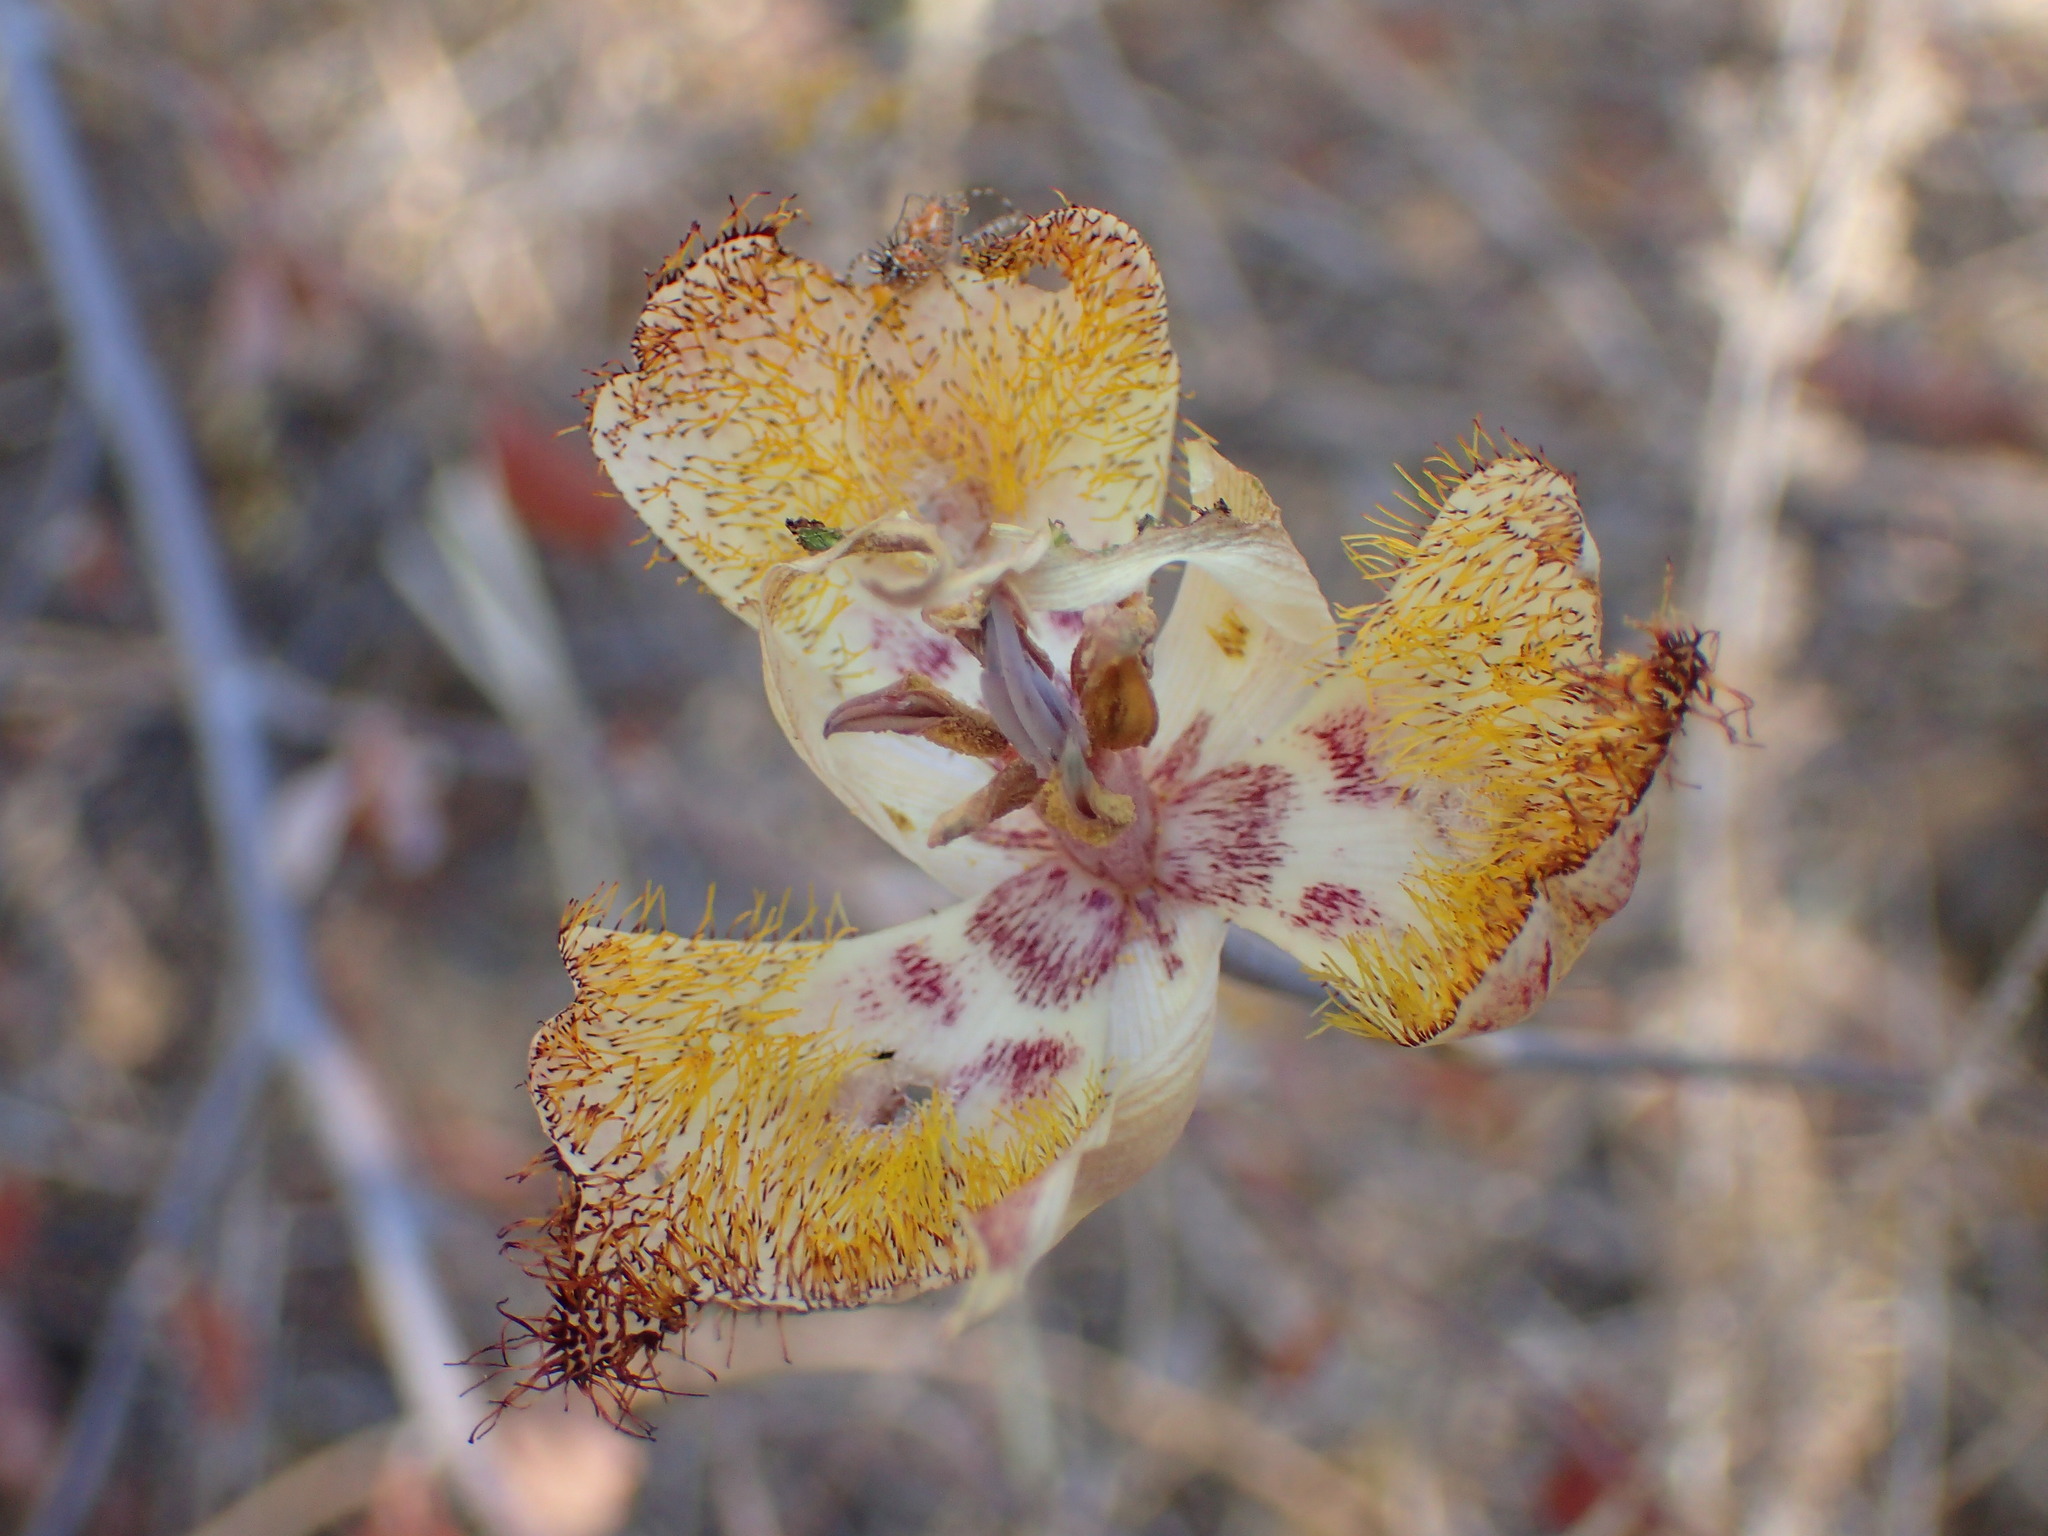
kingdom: Plantae
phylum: Tracheophyta
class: Liliopsida
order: Liliales
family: Liliaceae
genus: Calochortus
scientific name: Calochortus fimbriatus
